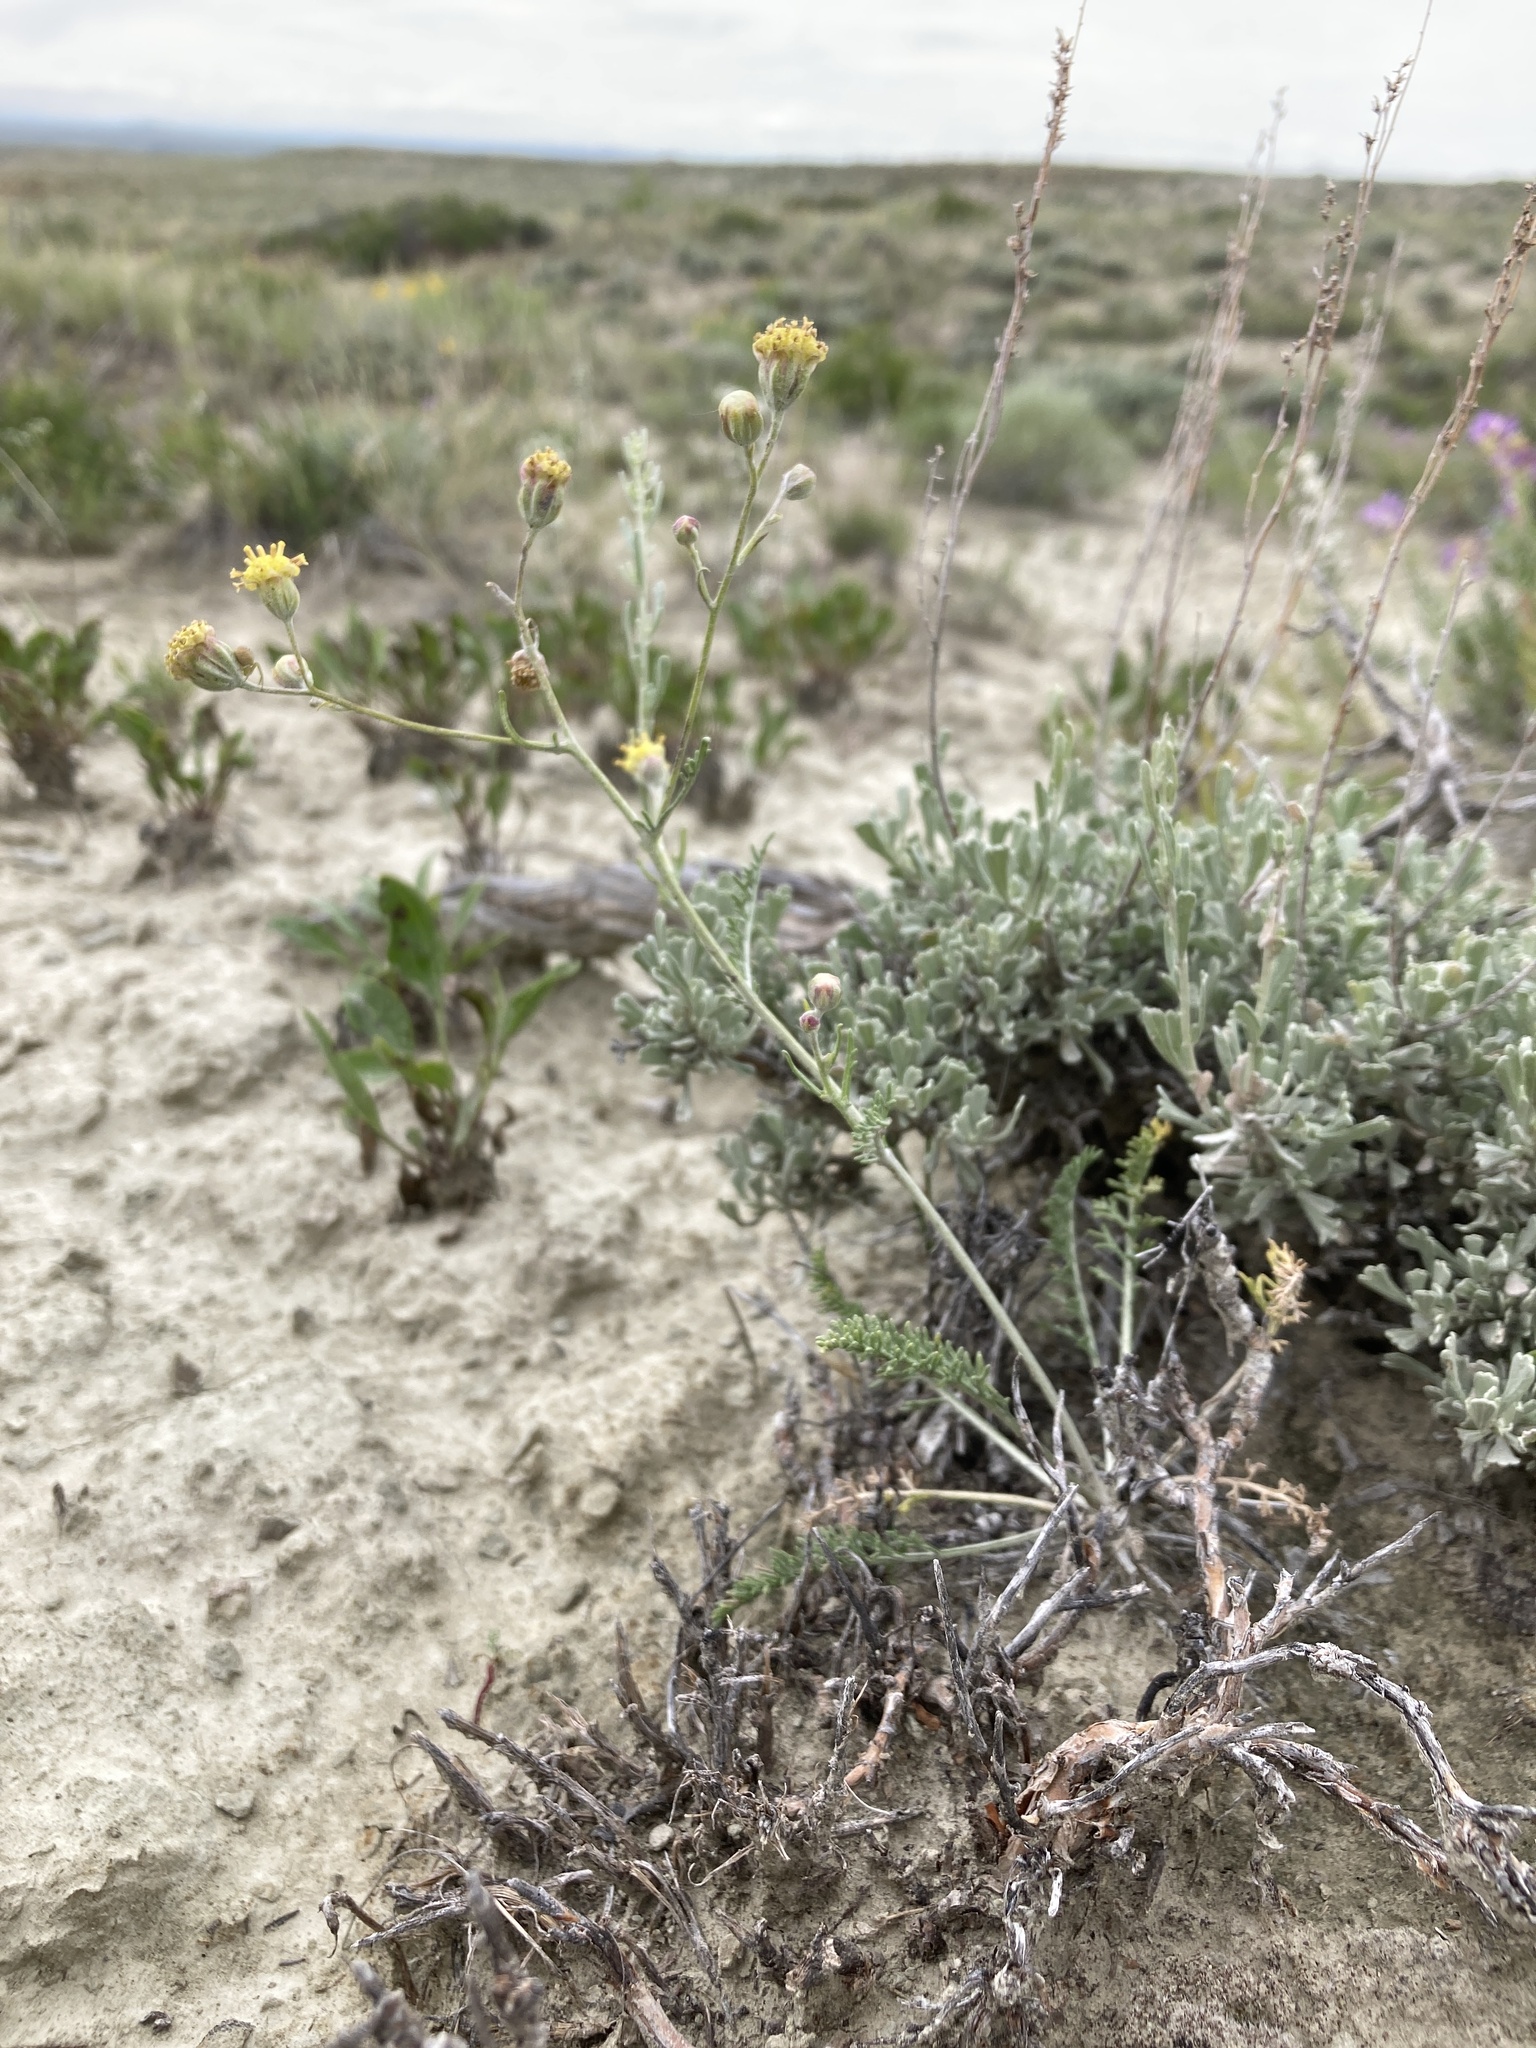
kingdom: Plantae
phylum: Tracheophyta
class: Magnoliopsida
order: Asterales
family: Asteraceae
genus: Hymenopappus
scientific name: Hymenopappus filifolius
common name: Columbia cutleaf
